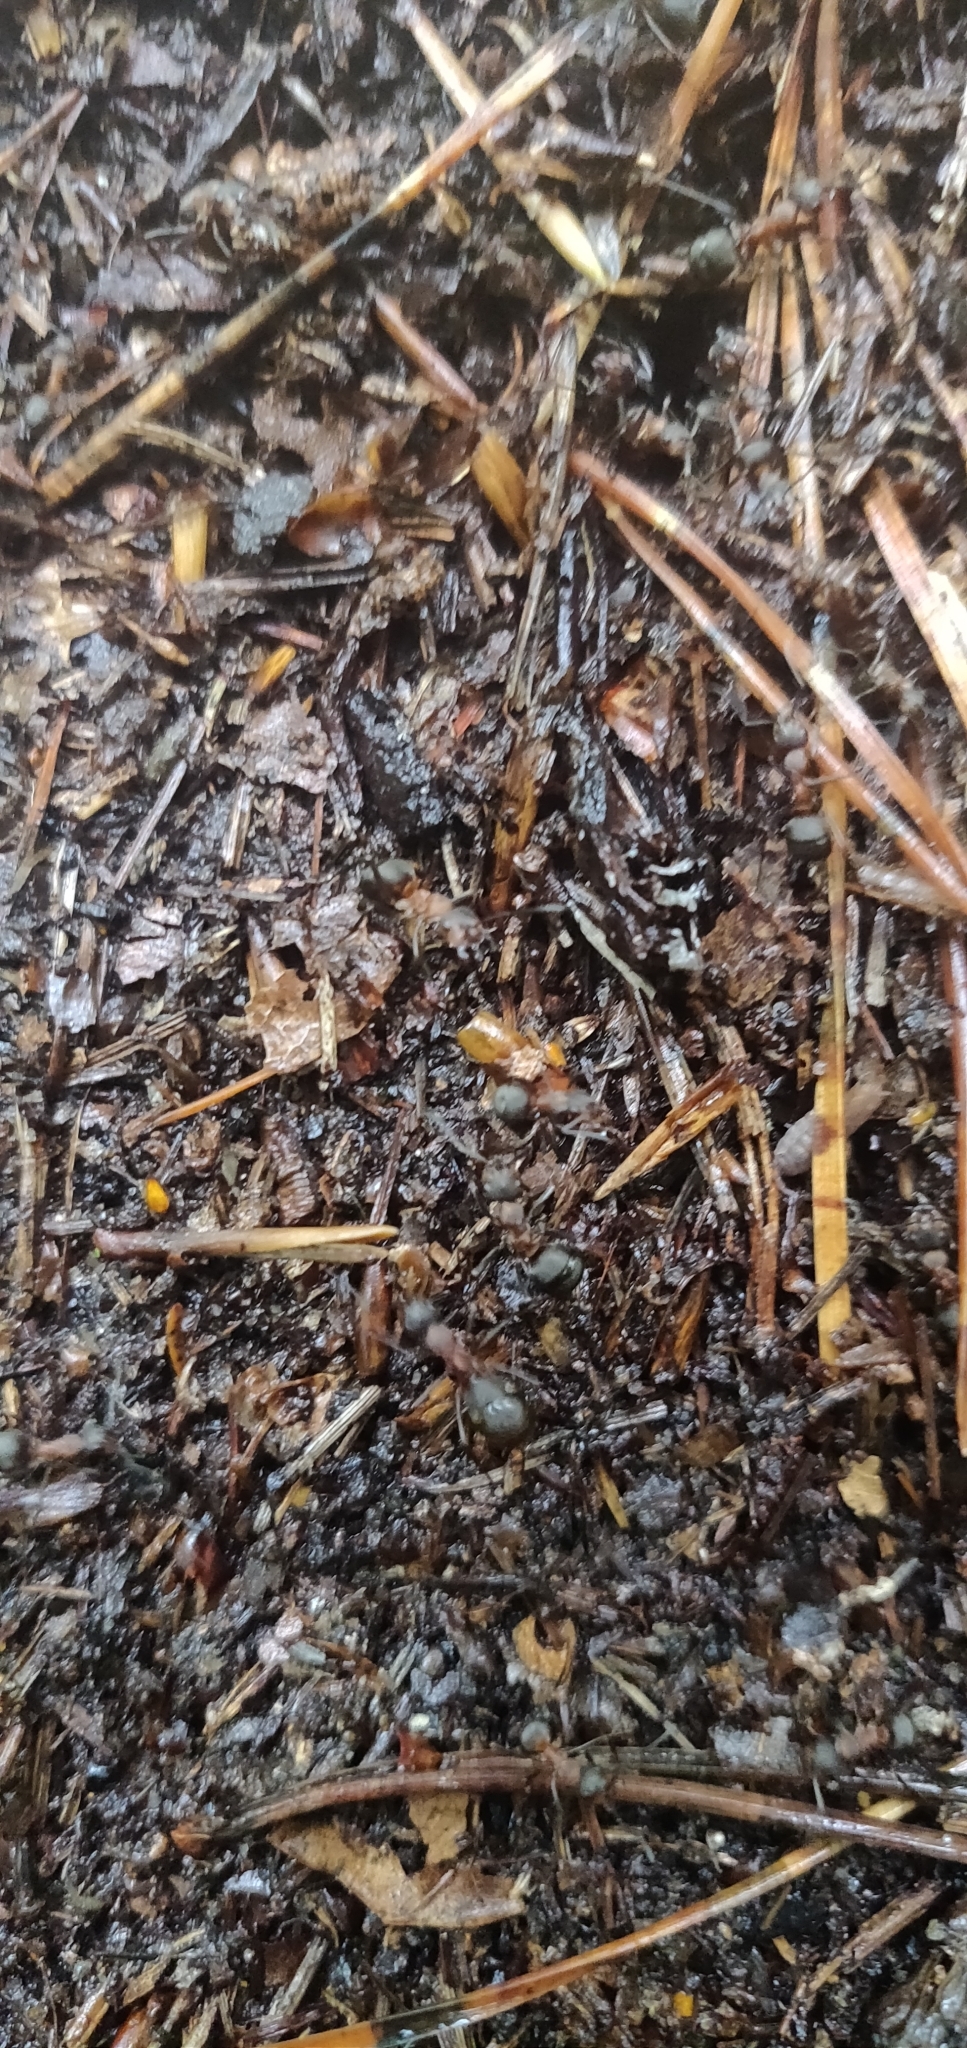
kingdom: Animalia
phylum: Arthropoda
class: Insecta
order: Hymenoptera
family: Formicidae
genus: Formica
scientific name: Formica
